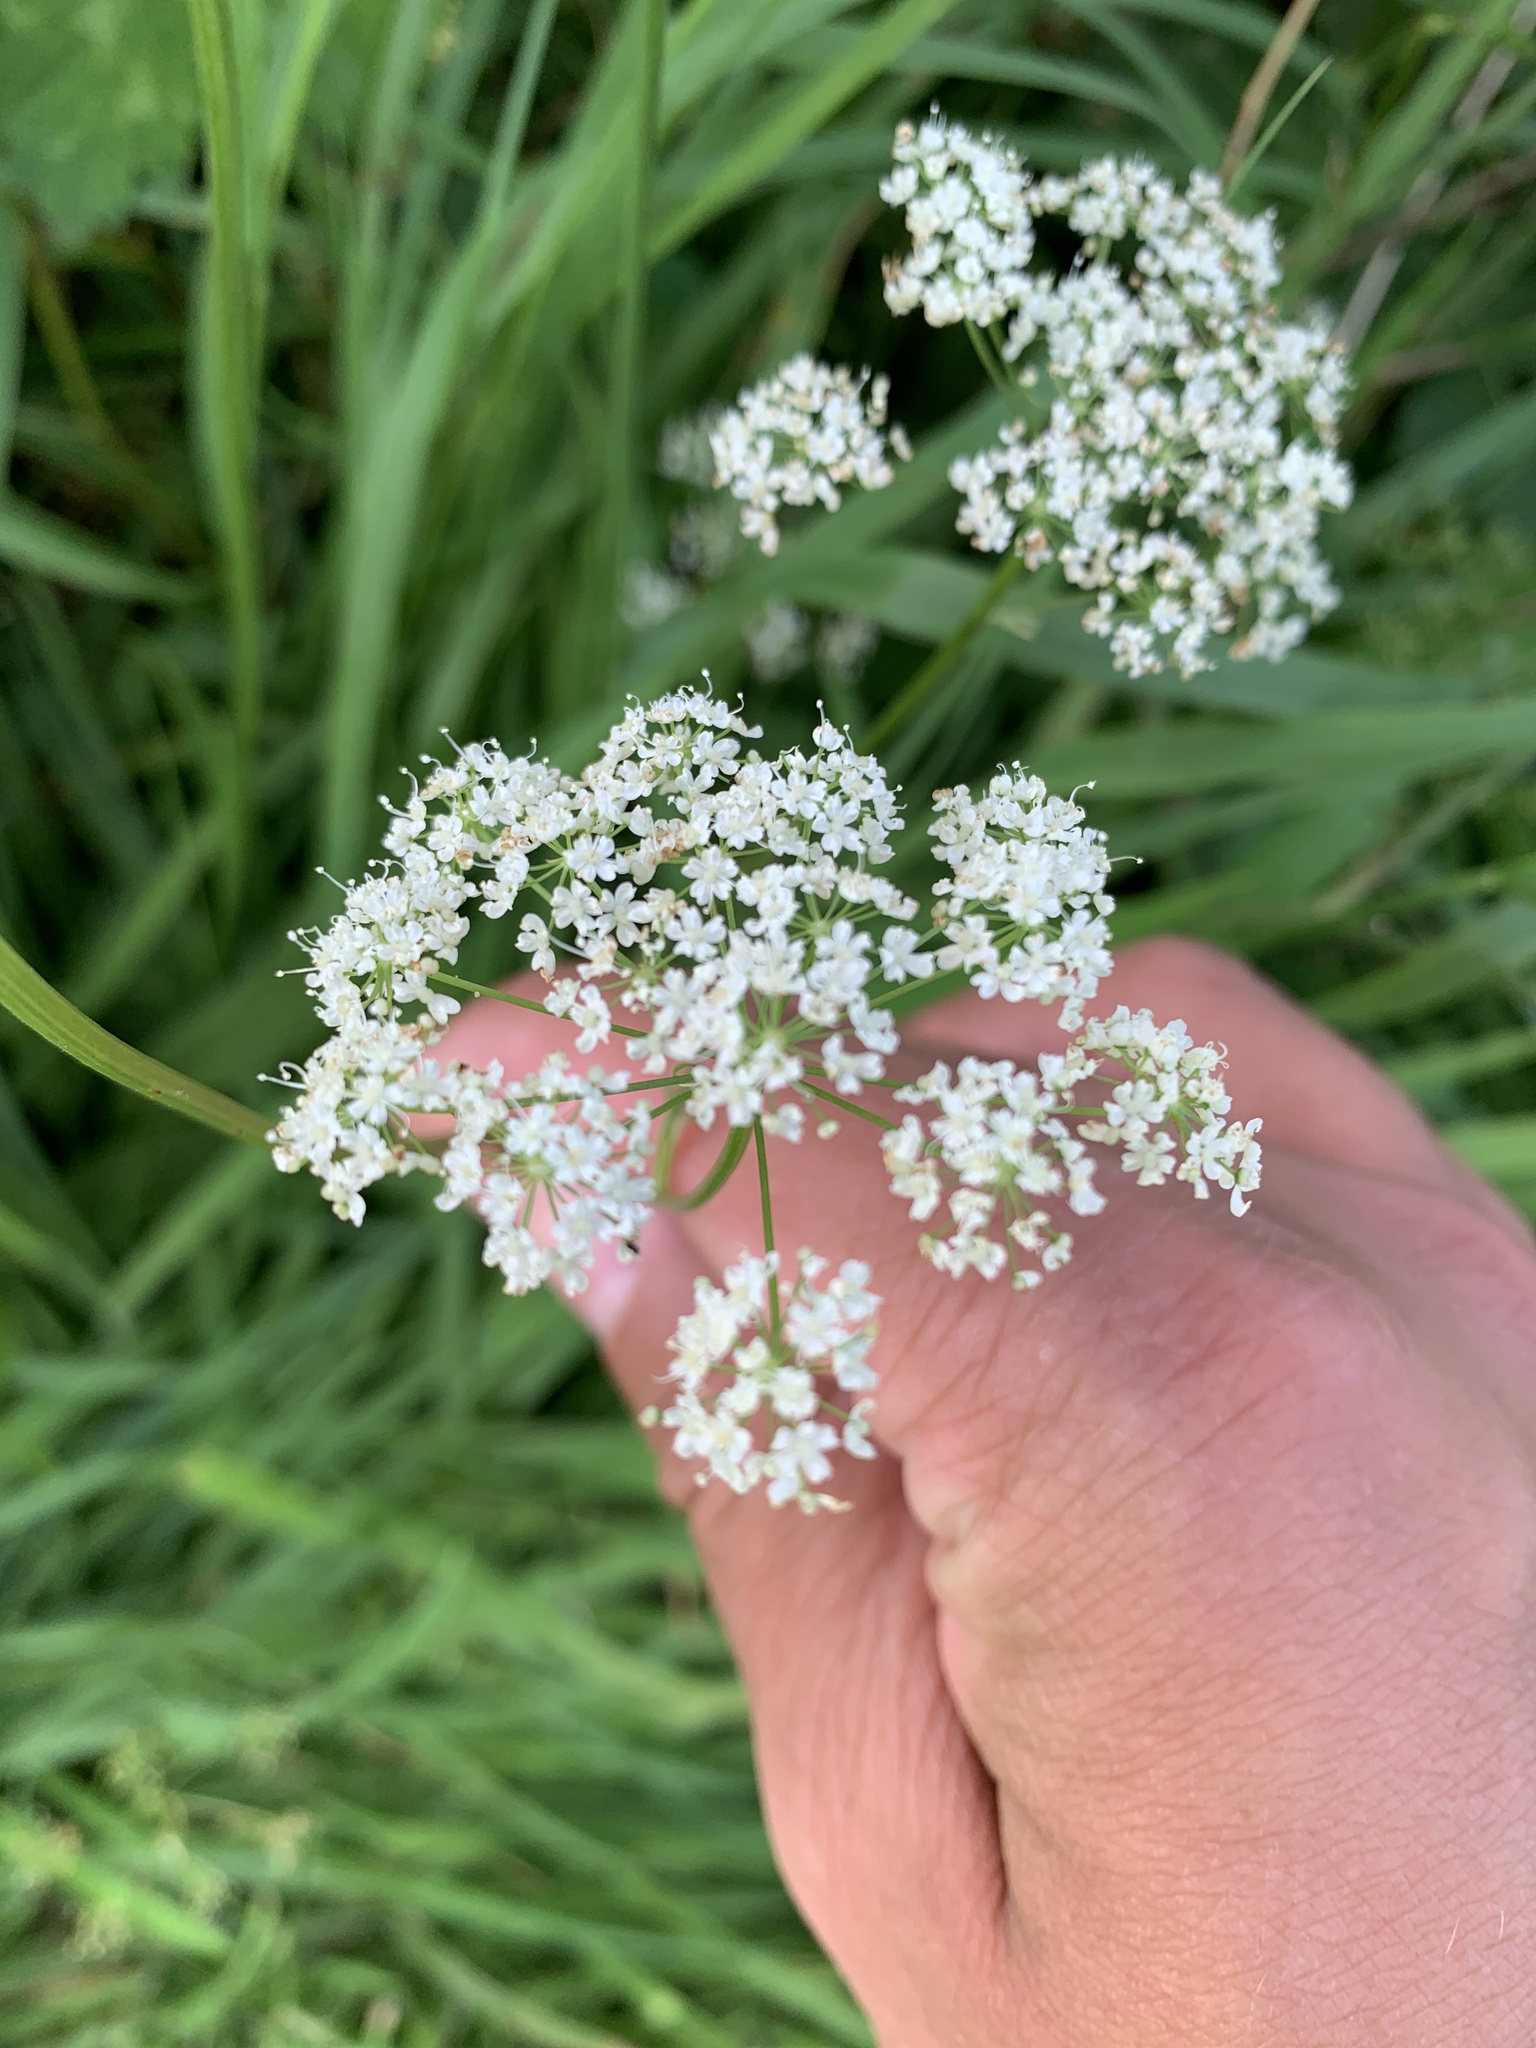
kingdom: Plantae
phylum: Tracheophyta
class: Magnoliopsida
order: Apiales
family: Apiaceae
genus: Conopodium
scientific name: Conopodium majus
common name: Pignut
